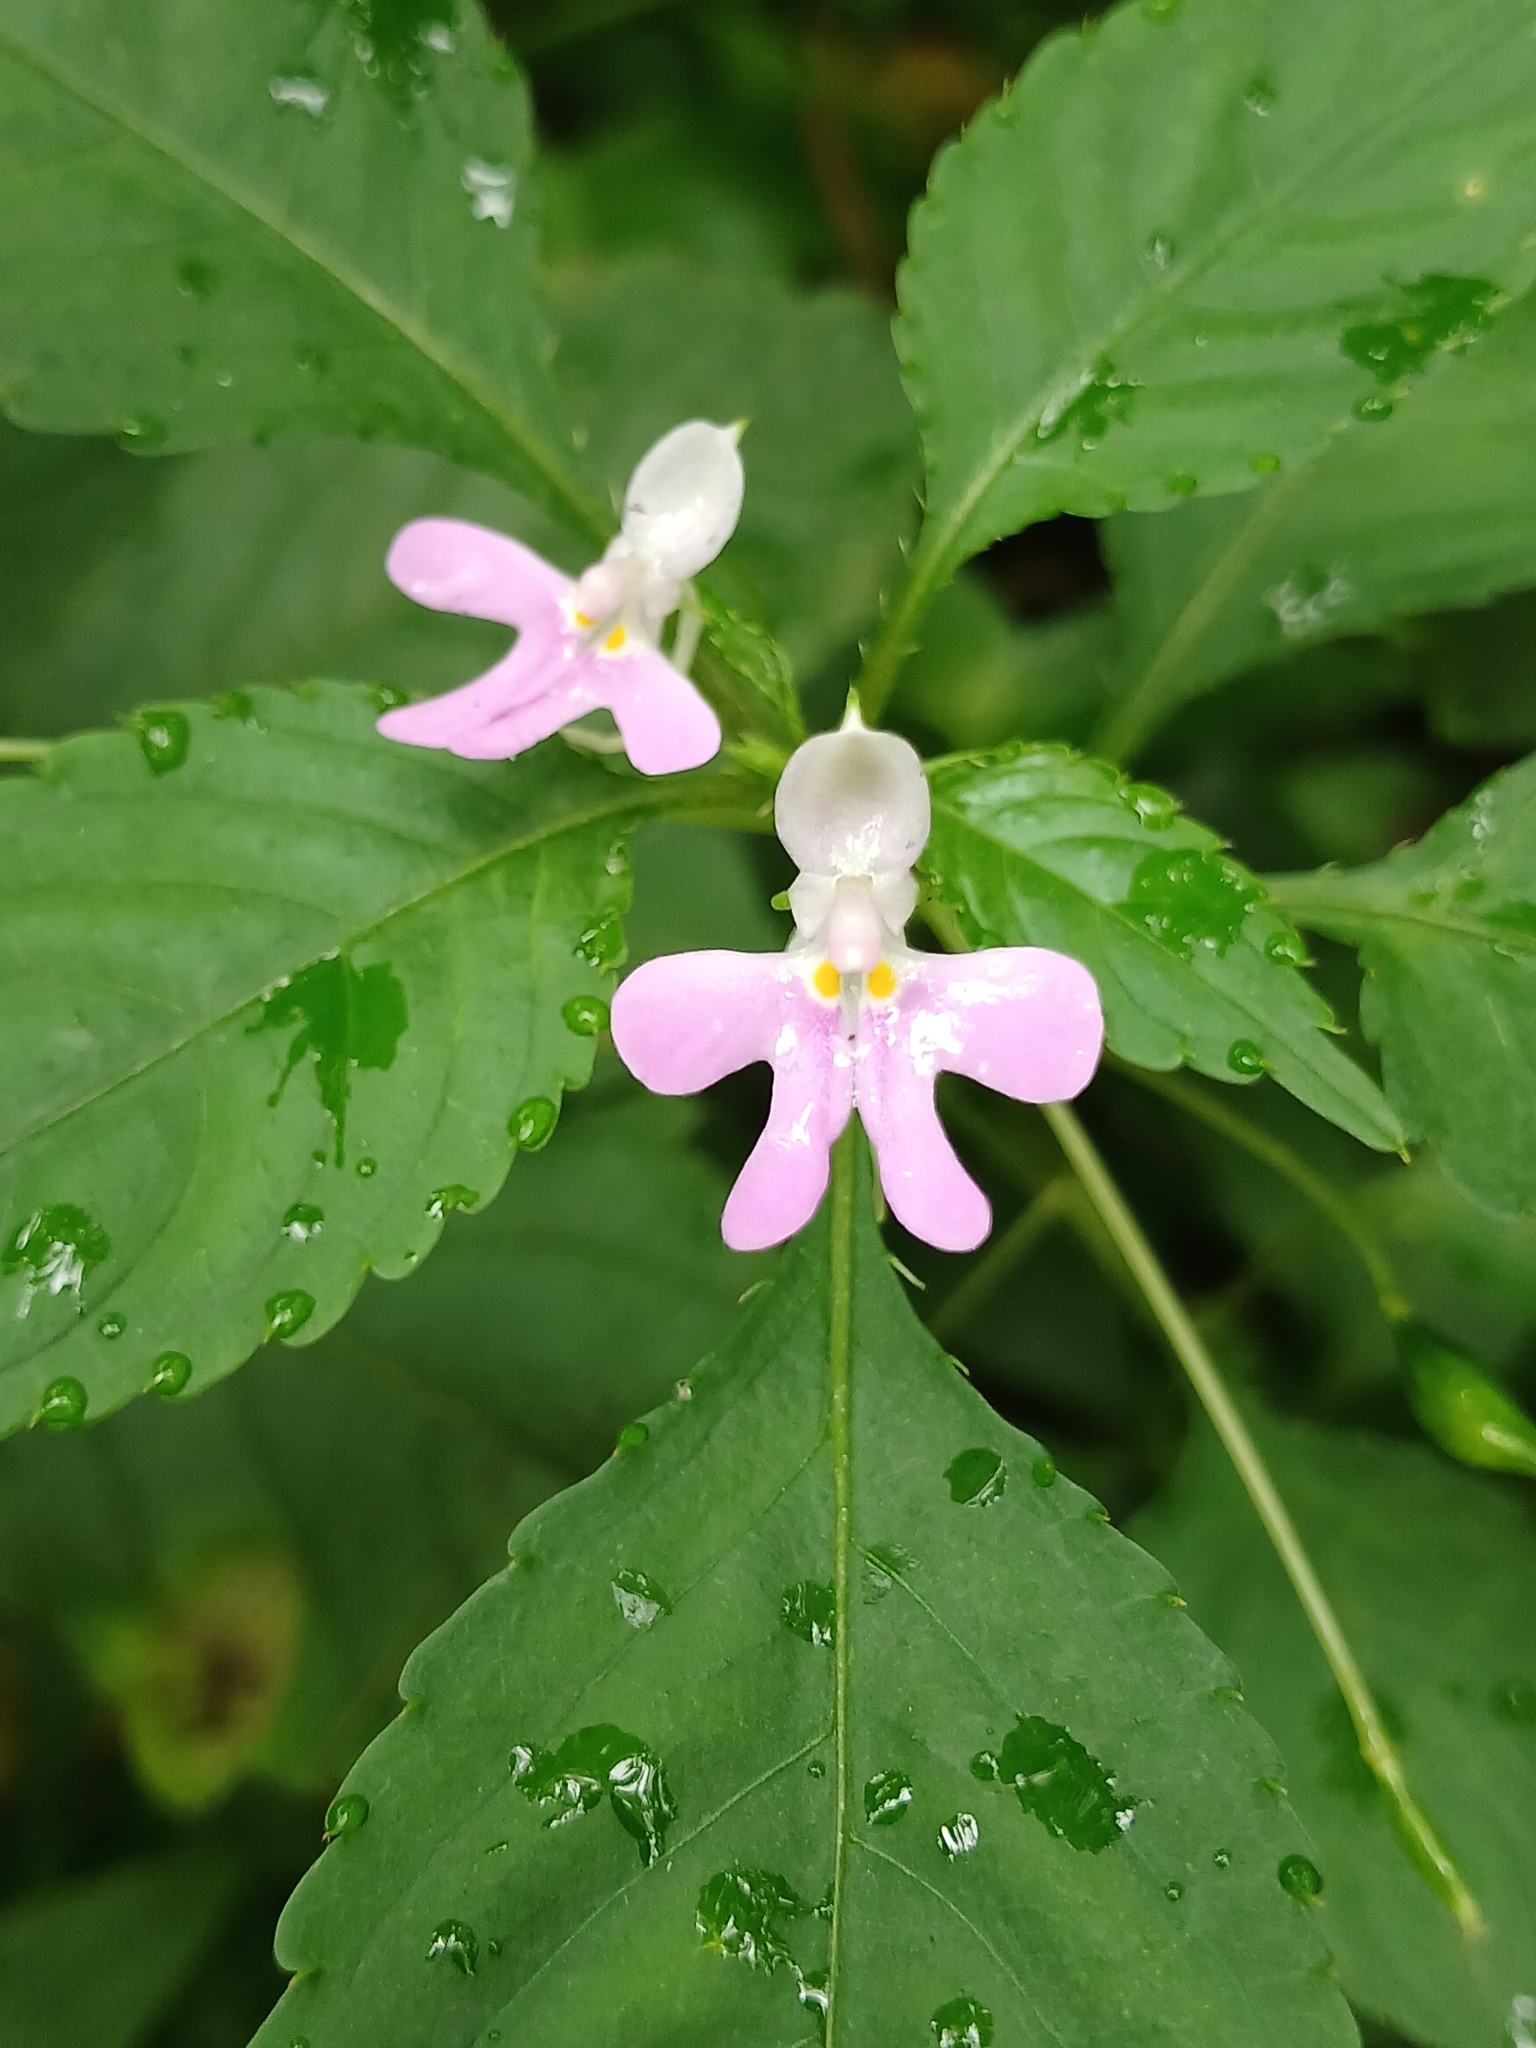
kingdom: Plantae
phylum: Tracheophyta
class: Magnoliopsida
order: Ericales
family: Balsaminaceae
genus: Impatiens
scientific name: Impatiens hochstetteri
